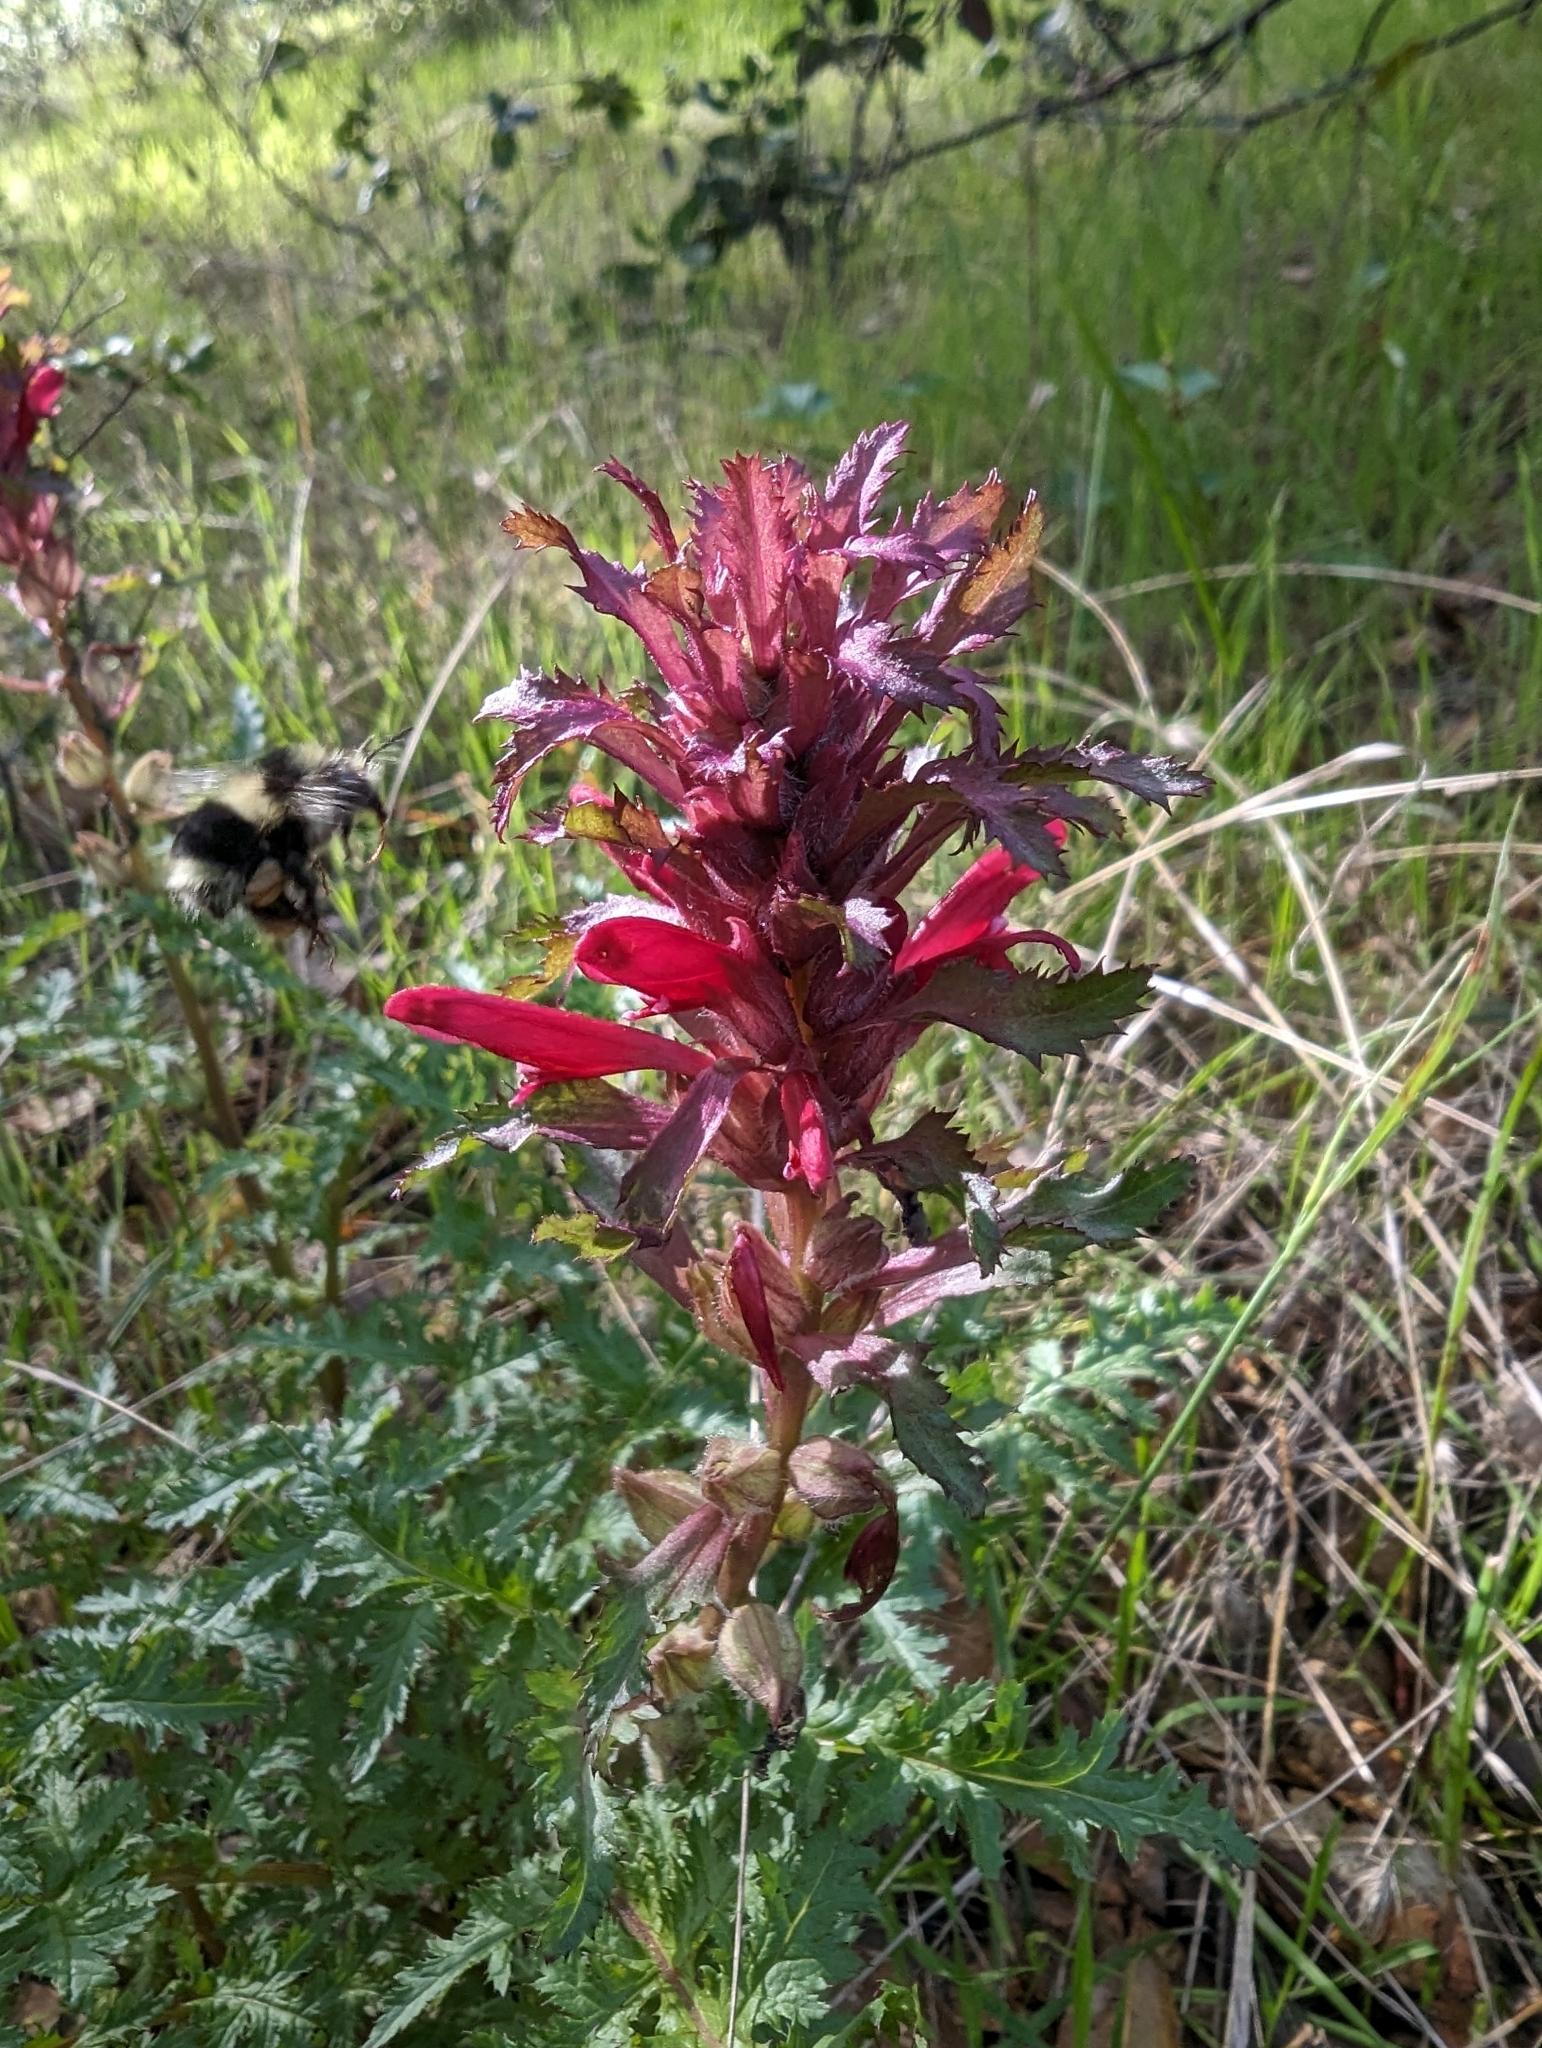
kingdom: Plantae
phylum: Tracheophyta
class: Magnoliopsida
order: Lamiales
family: Orobanchaceae
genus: Pedicularis
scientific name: Pedicularis densiflora
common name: Indian warrior
